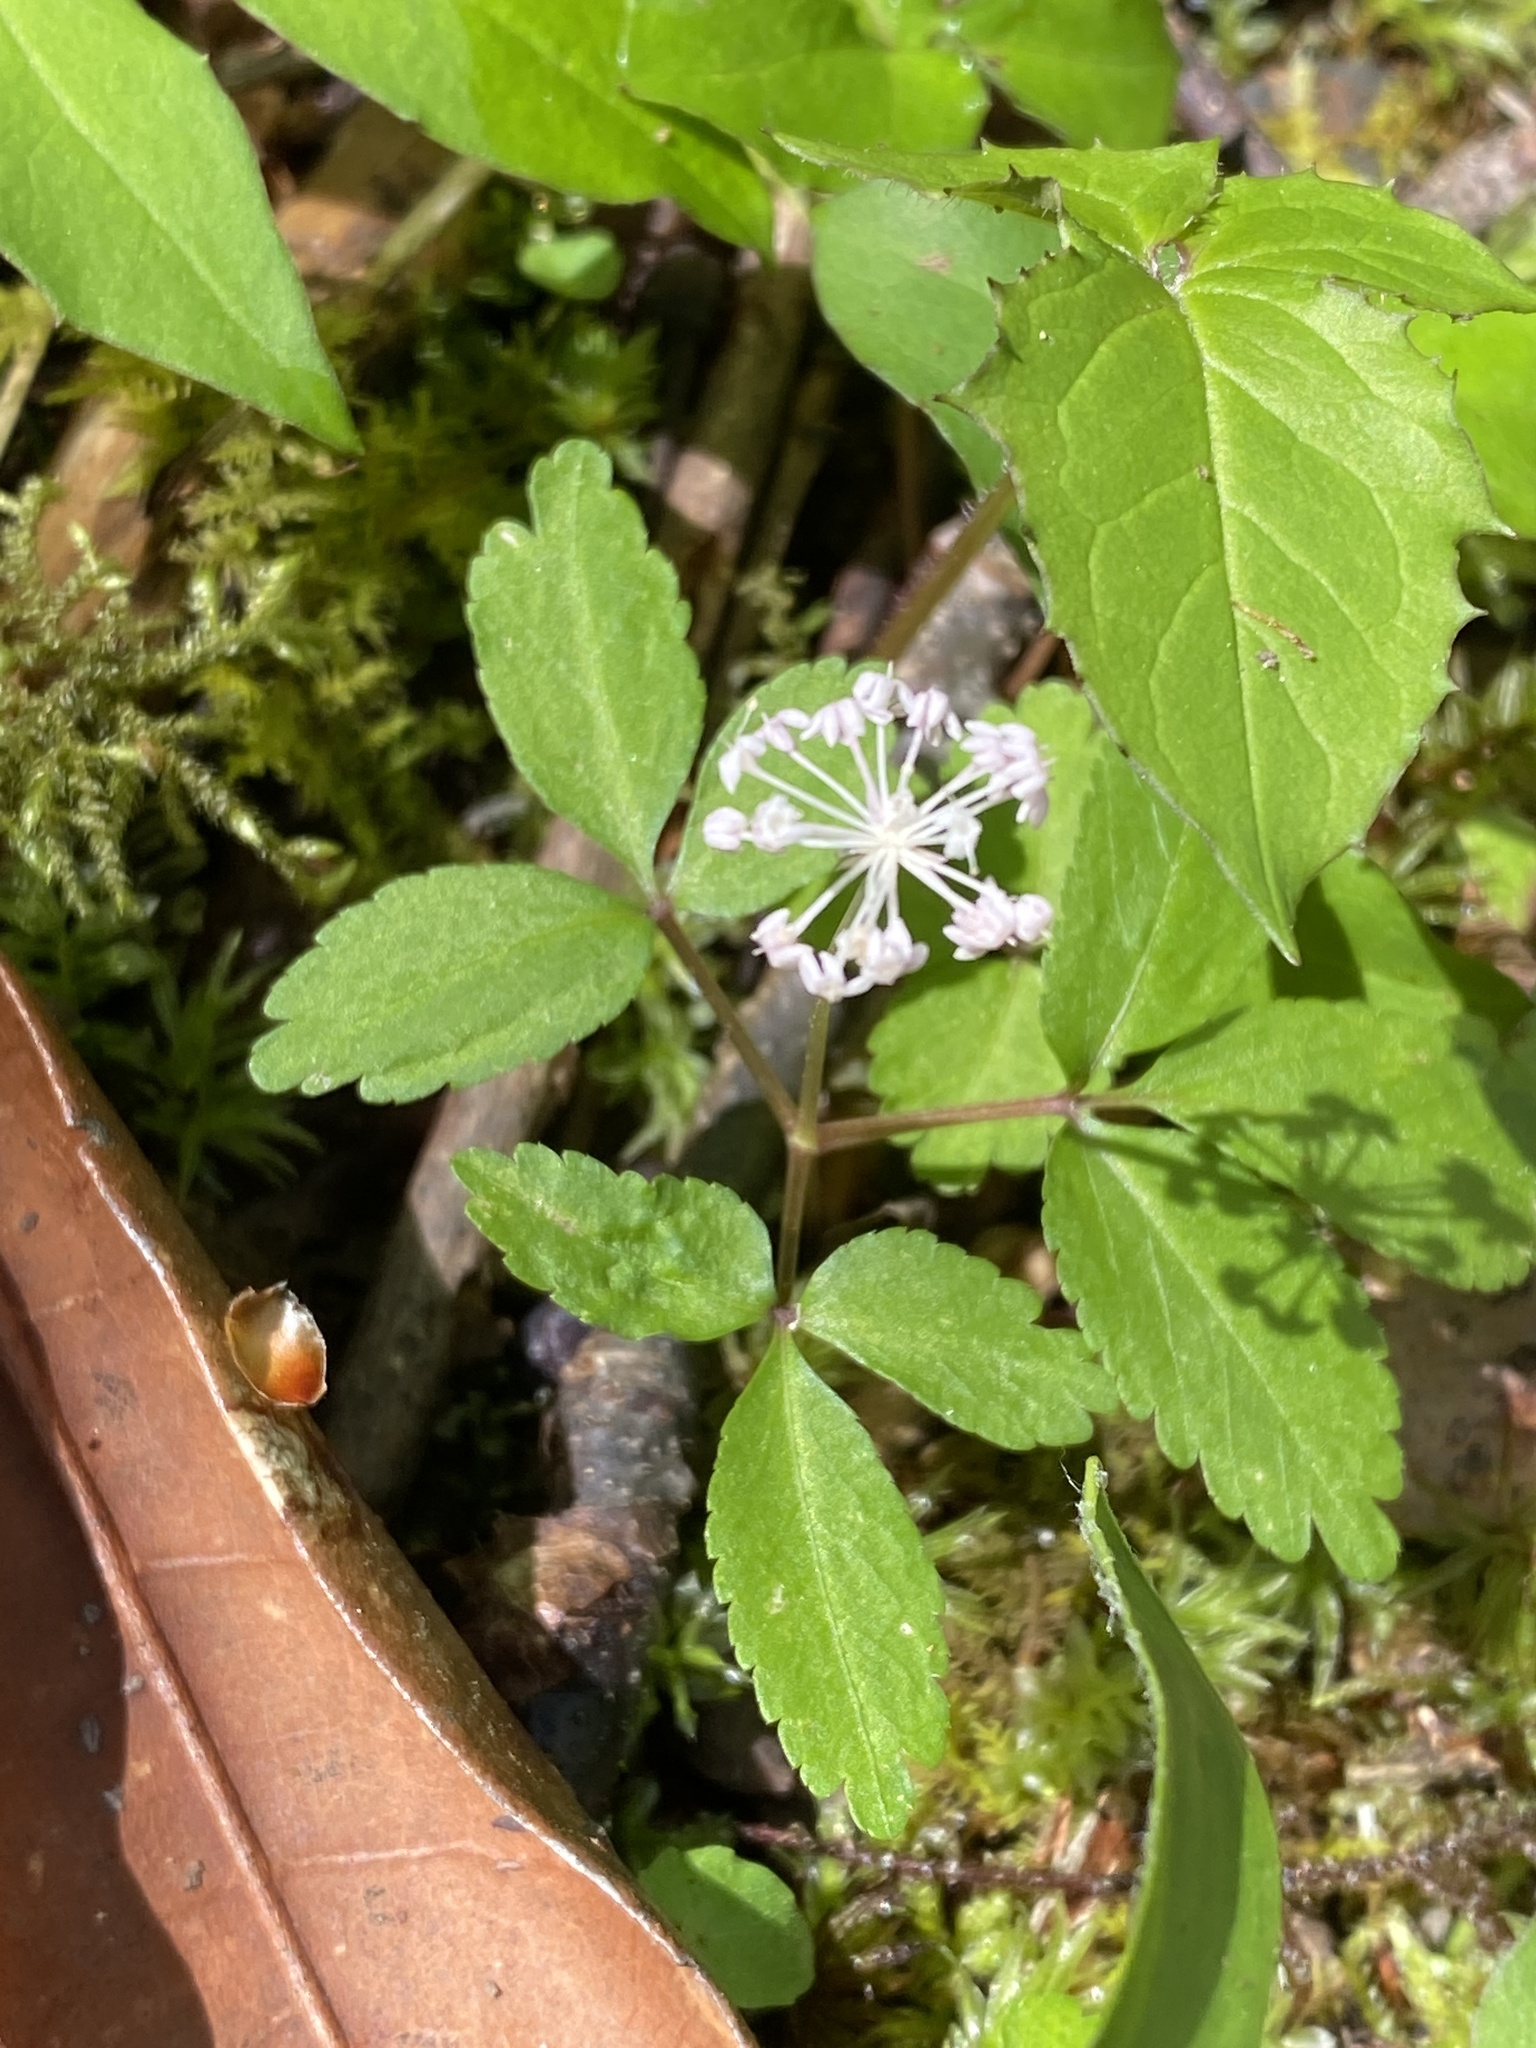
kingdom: Plantae
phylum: Tracheophyta
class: Magnoliopsida
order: Apiales
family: Araliaceae
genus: Panax
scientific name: Panax trifolius
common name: Dwarf ginseng
